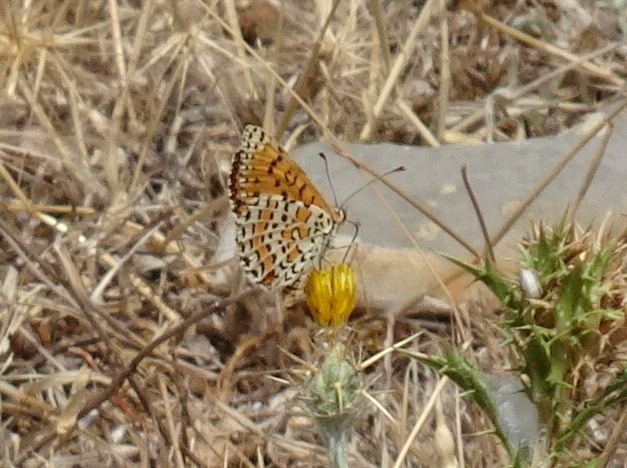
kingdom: Animalia
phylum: Arthropoda
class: Insecta
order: Lepidoptera
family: Nymphalidae
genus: Melitaea
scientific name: Melitaea didyma
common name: Spotted fritillary
